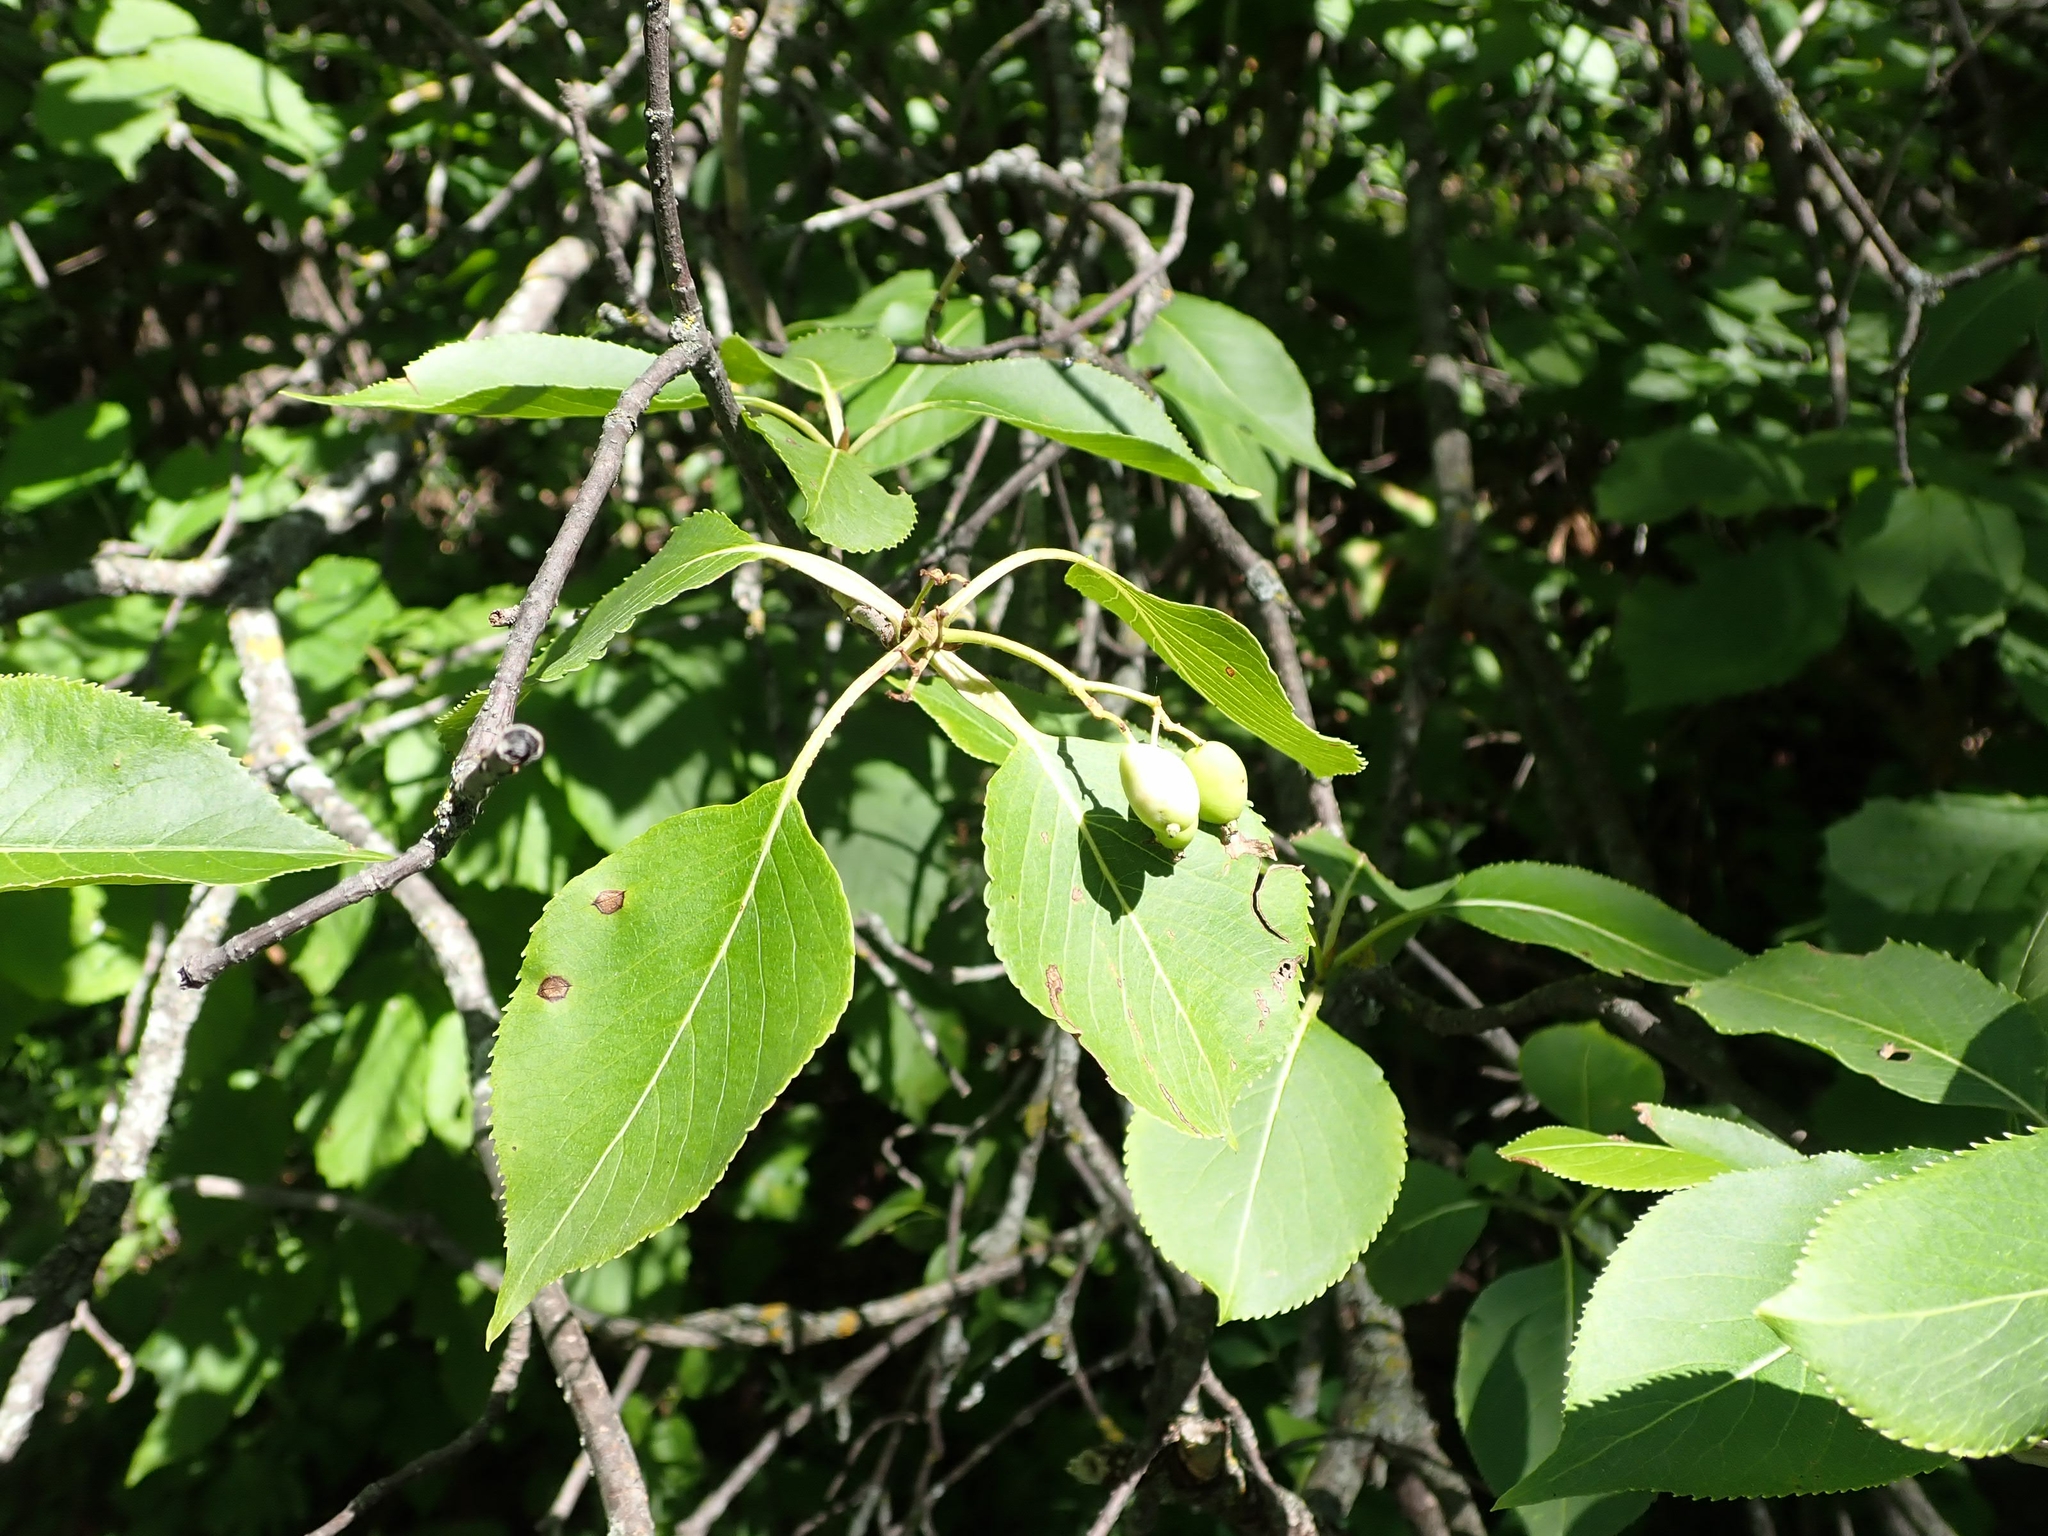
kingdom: Plantae
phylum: Tracheophyta
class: Magnoliopsida
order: Dipsacales
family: Viburnaceae
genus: Viburnum
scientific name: Viburnum lentago
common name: Black haw
